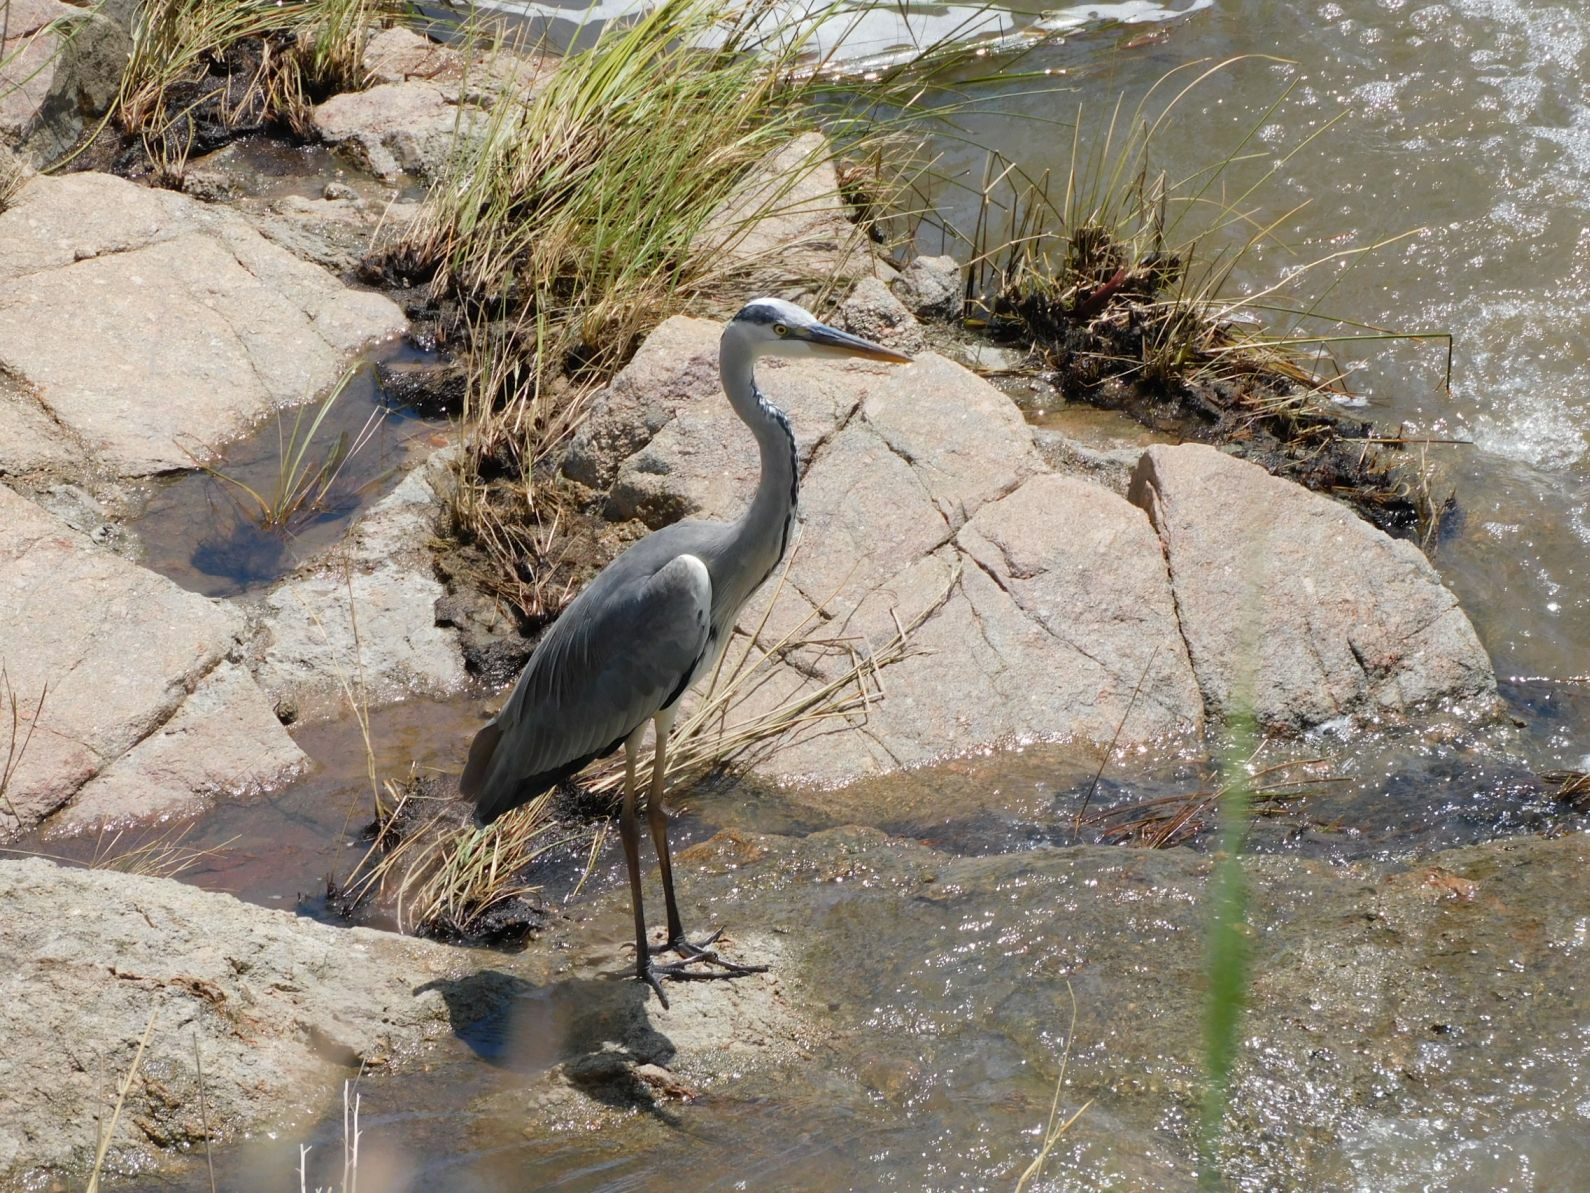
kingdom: Animalia
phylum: Chordata
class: Aves
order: Pelecaniformes
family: Ardeidae
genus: Ardea
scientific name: Ardea cinerea
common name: Grey heron
